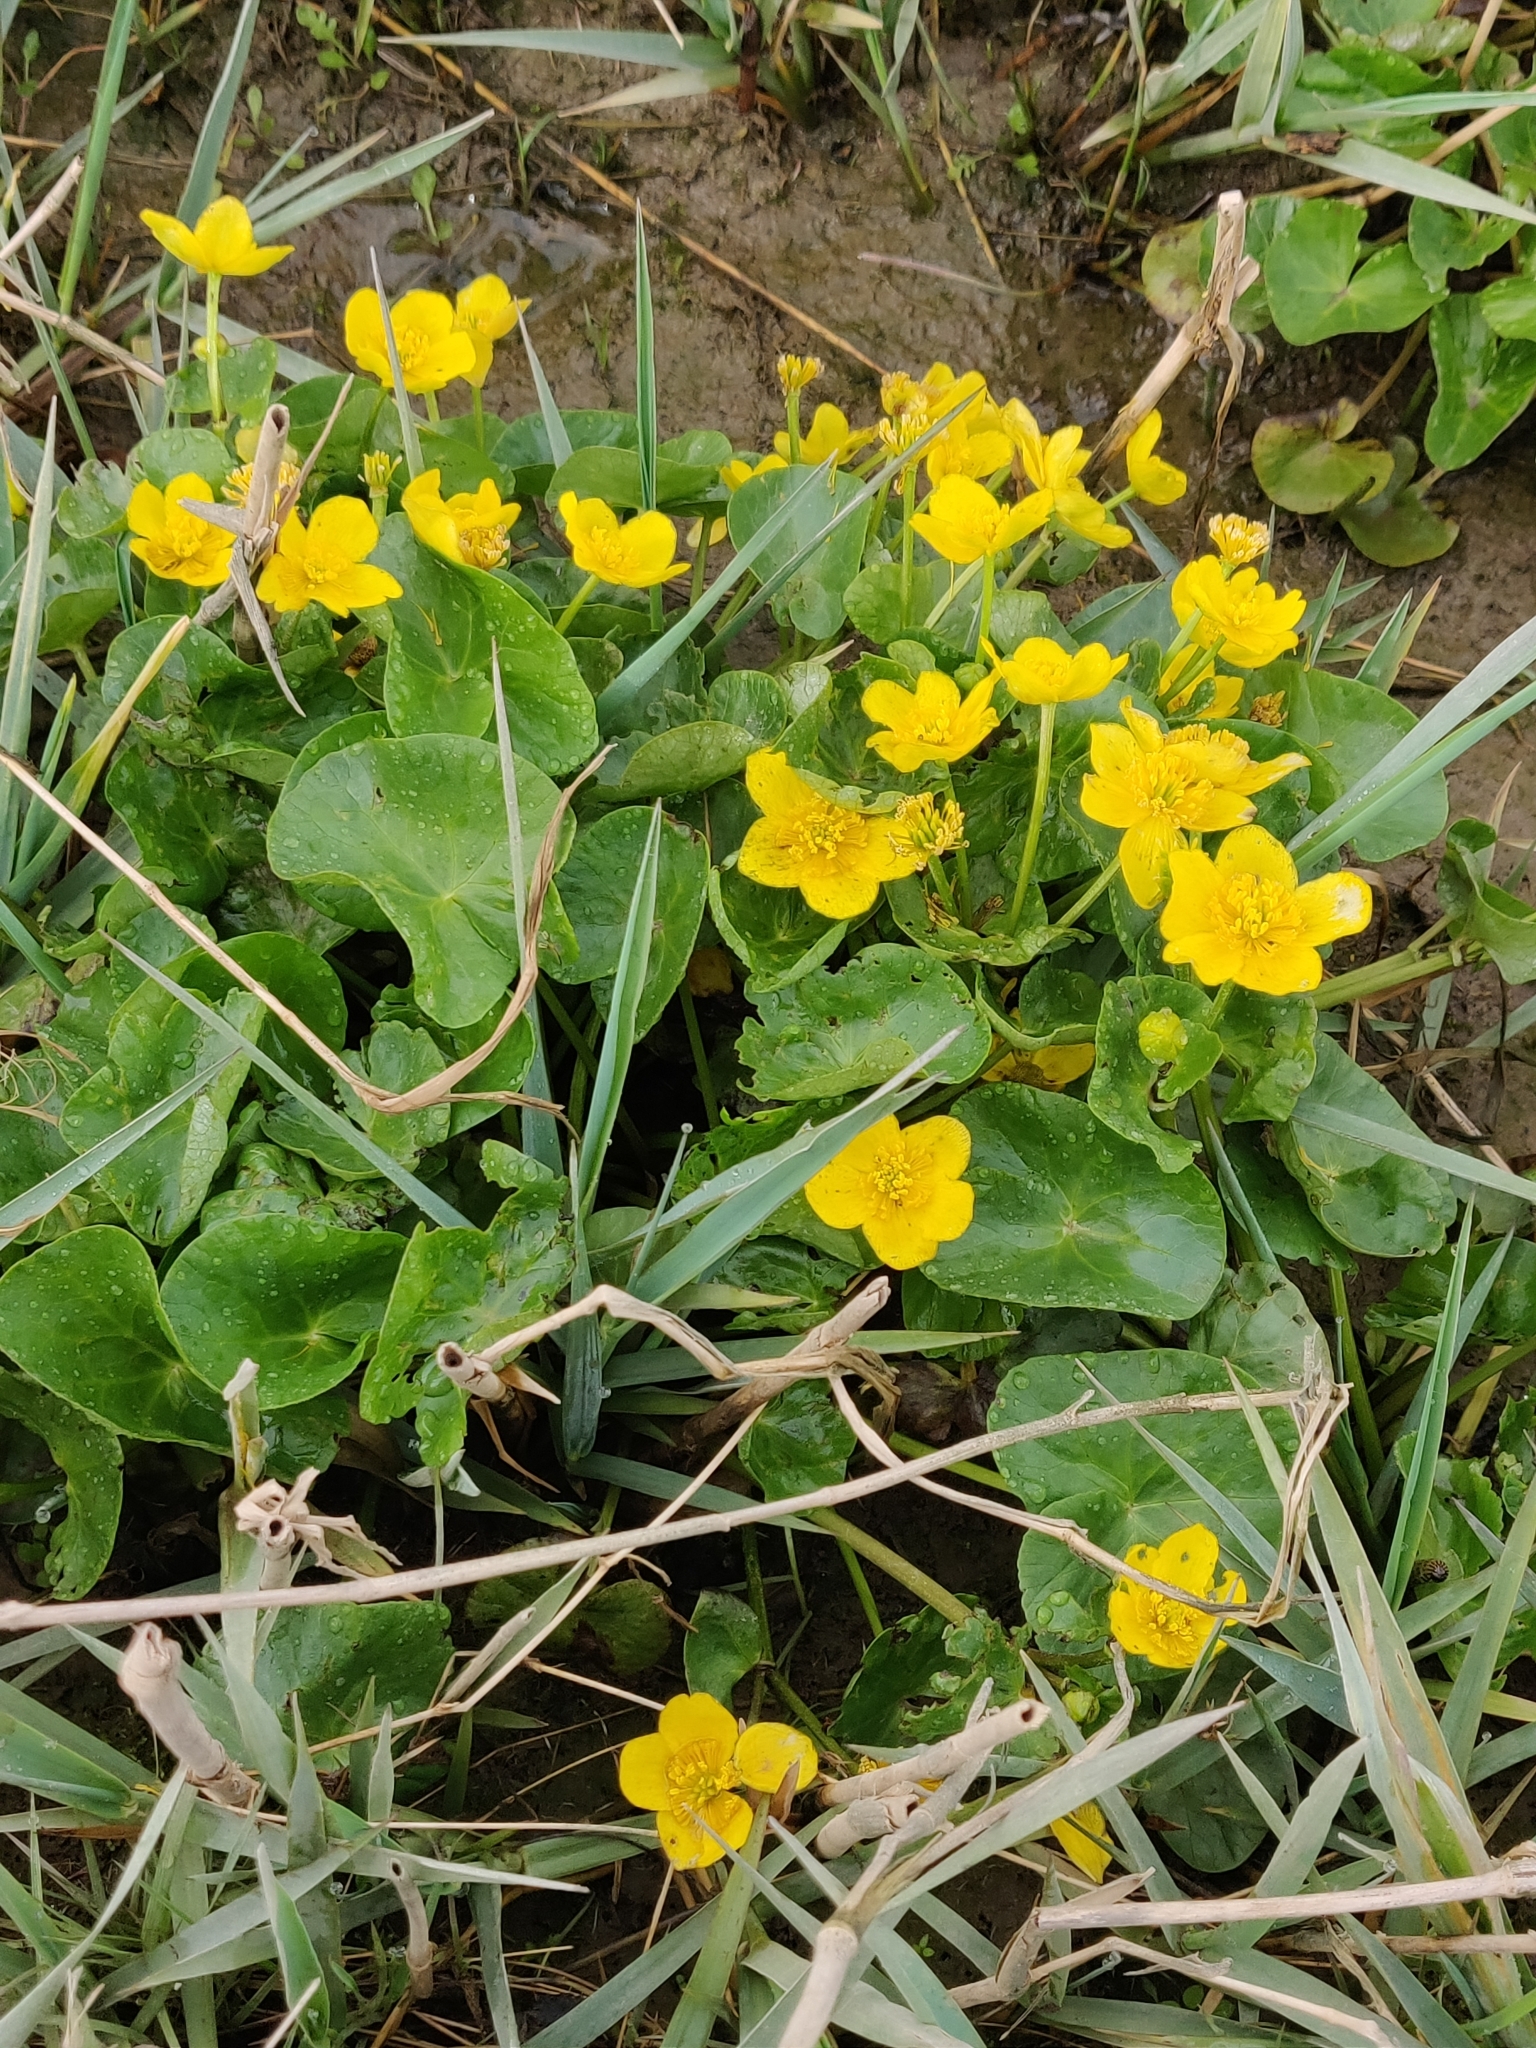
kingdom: Plantae
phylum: Tracheophyta
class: Magnoliopsida
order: Ranunculales
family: Ranunculaceae
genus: Caltha
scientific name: Caltha palustris
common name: Marsh marigold
